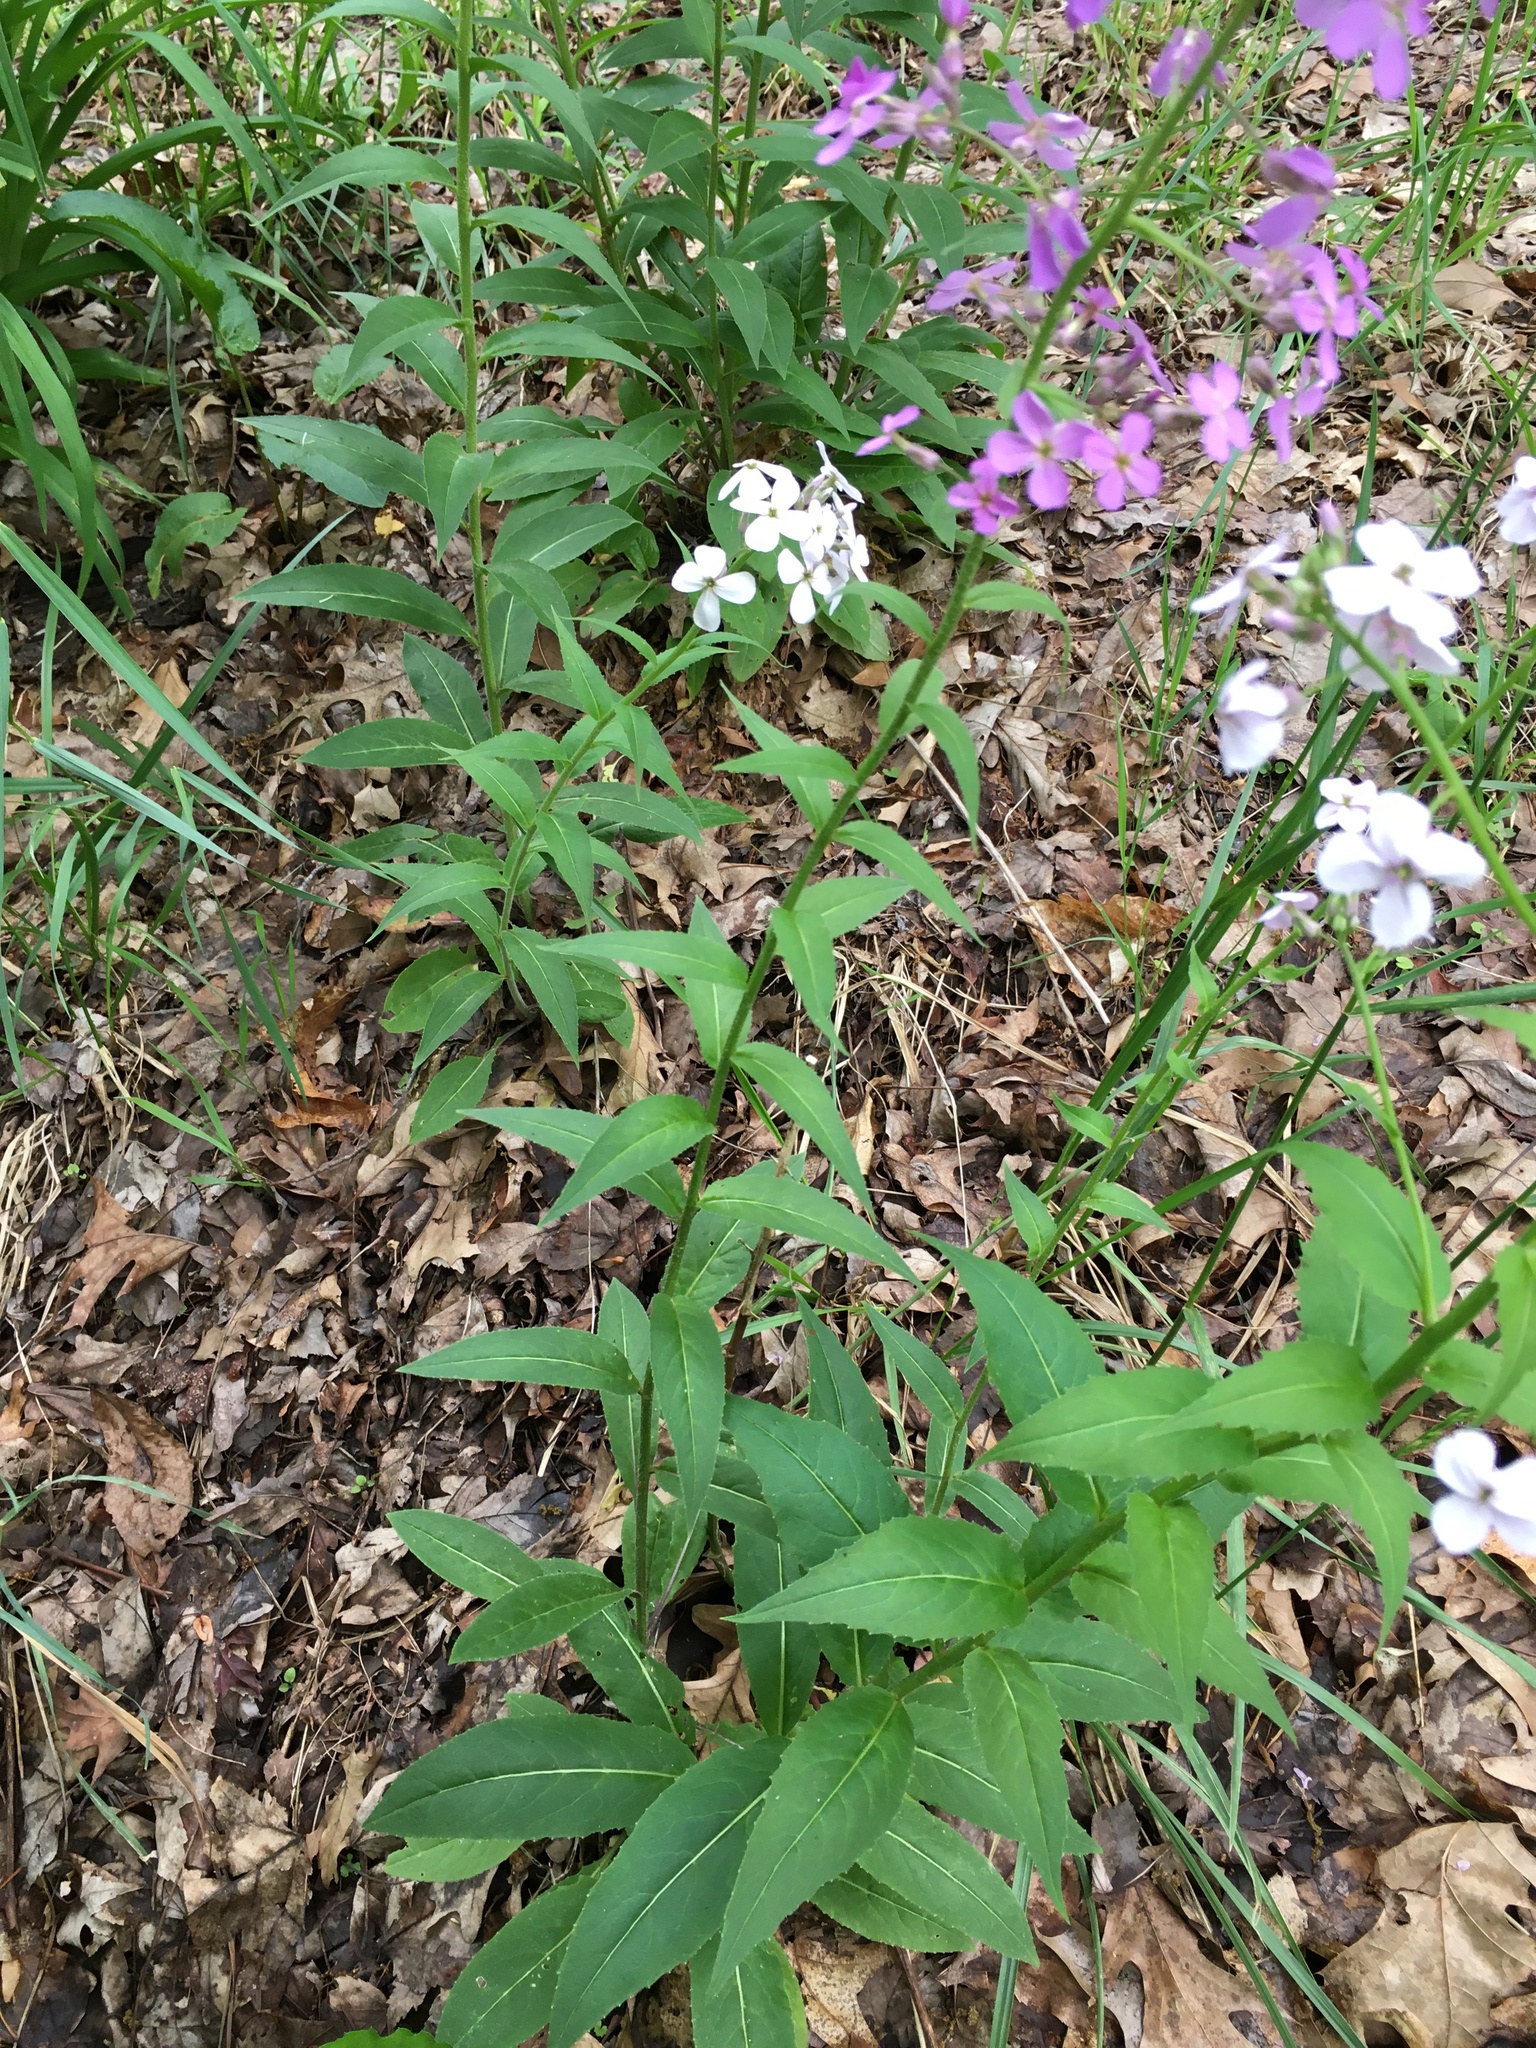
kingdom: Plantae
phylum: Tracheophyta
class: Magnoliopsida
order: Brassicales
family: Brassicaceae
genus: Hesperis
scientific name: Hesperis matronalis
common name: Dame's-violet
